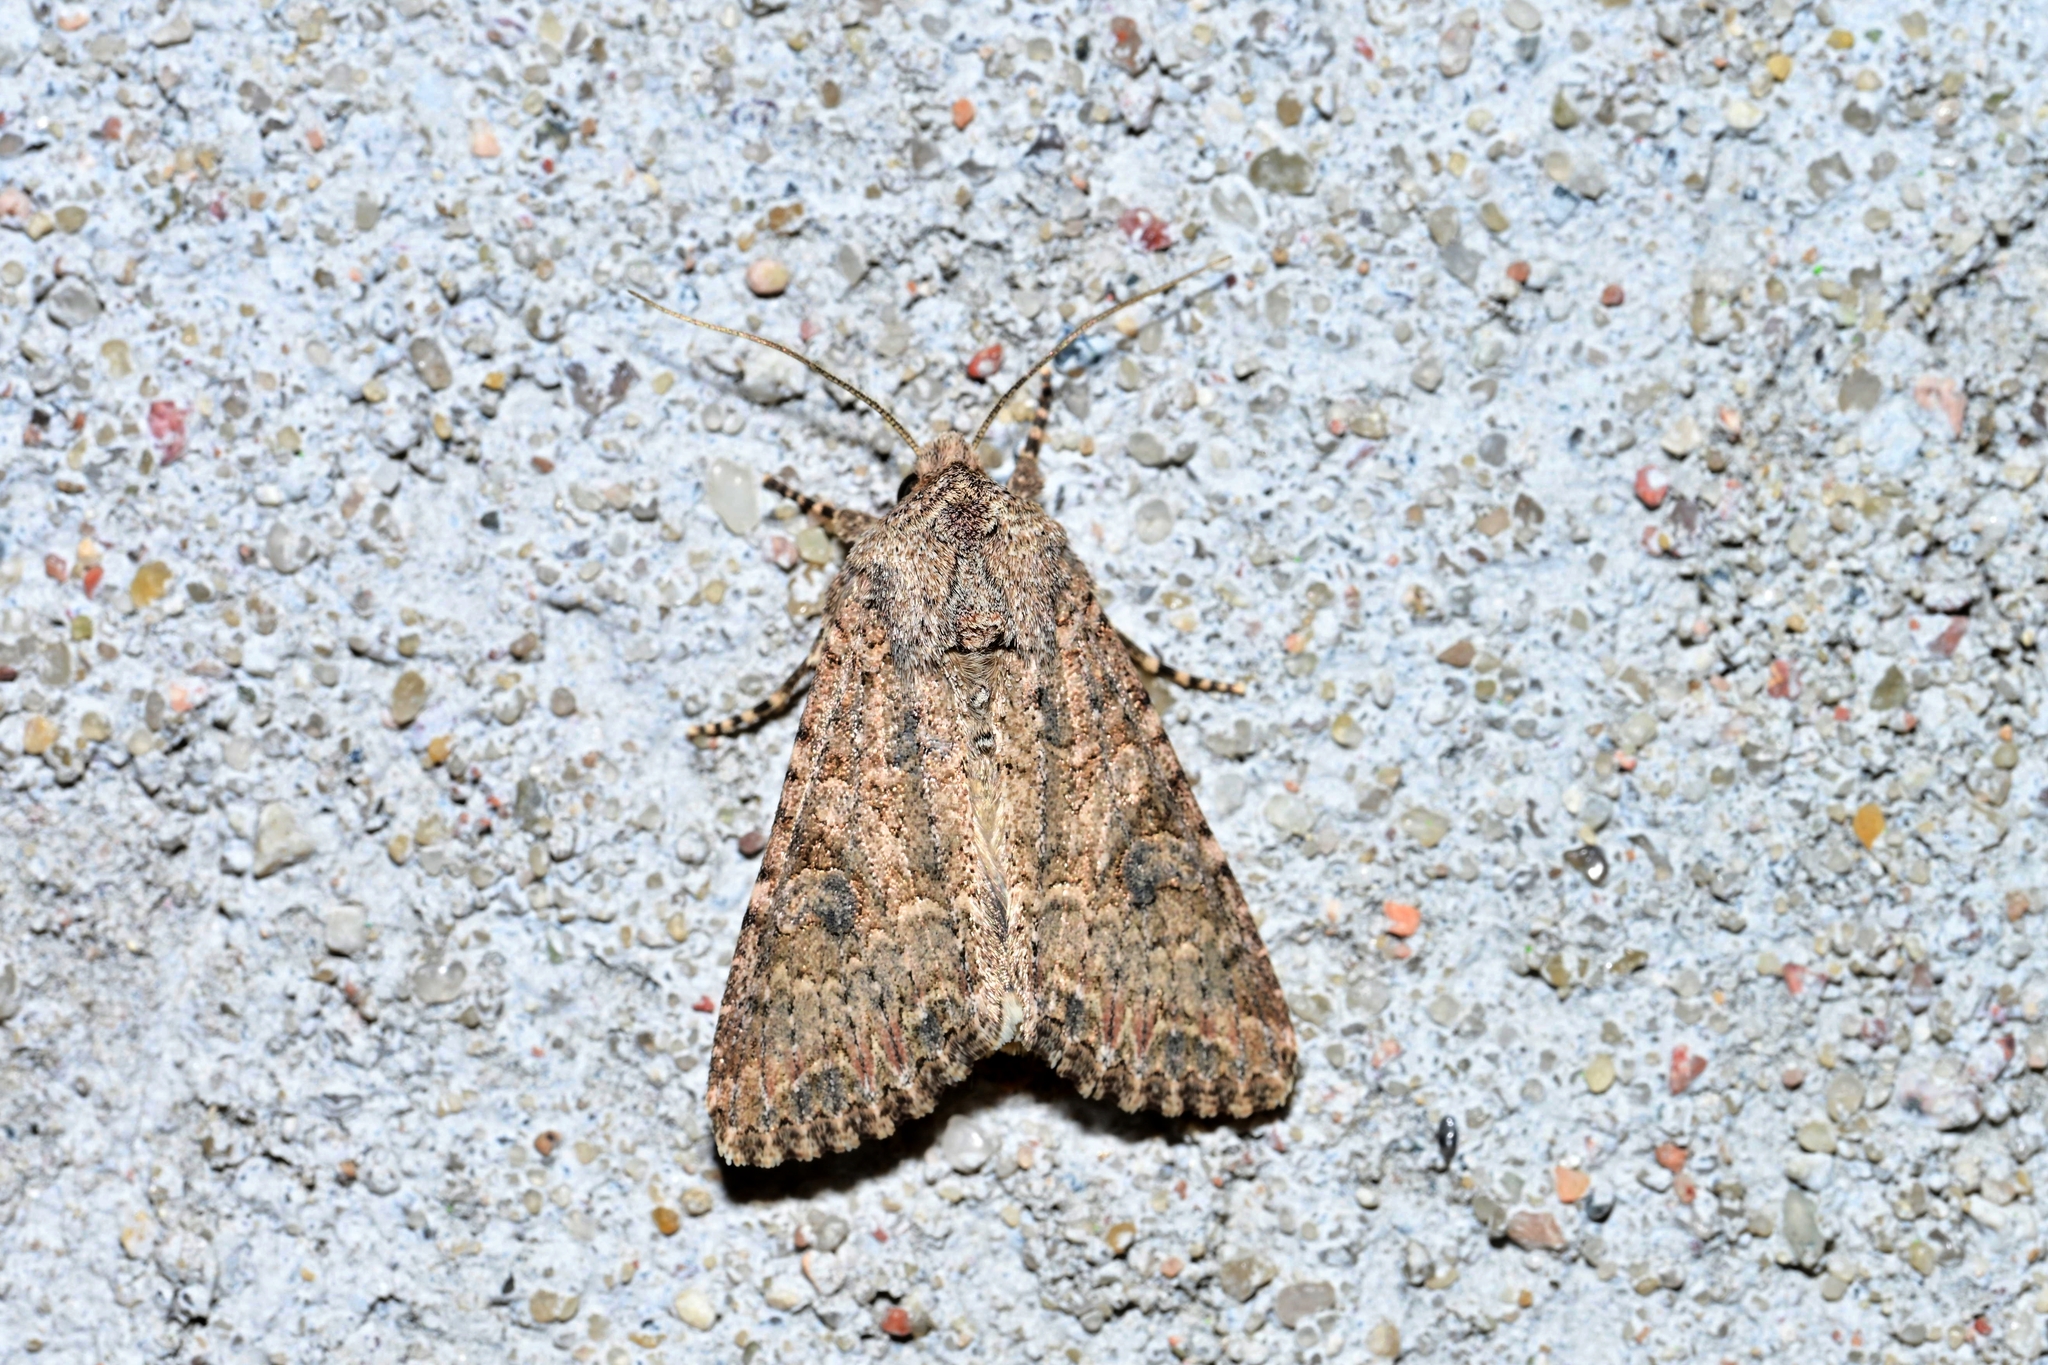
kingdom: Animalia
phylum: Arthropoda
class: Insecta
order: Lepidoptera
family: Noctuidae
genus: Anarta
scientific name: Anarta trifolii
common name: Clover cutworm moth
